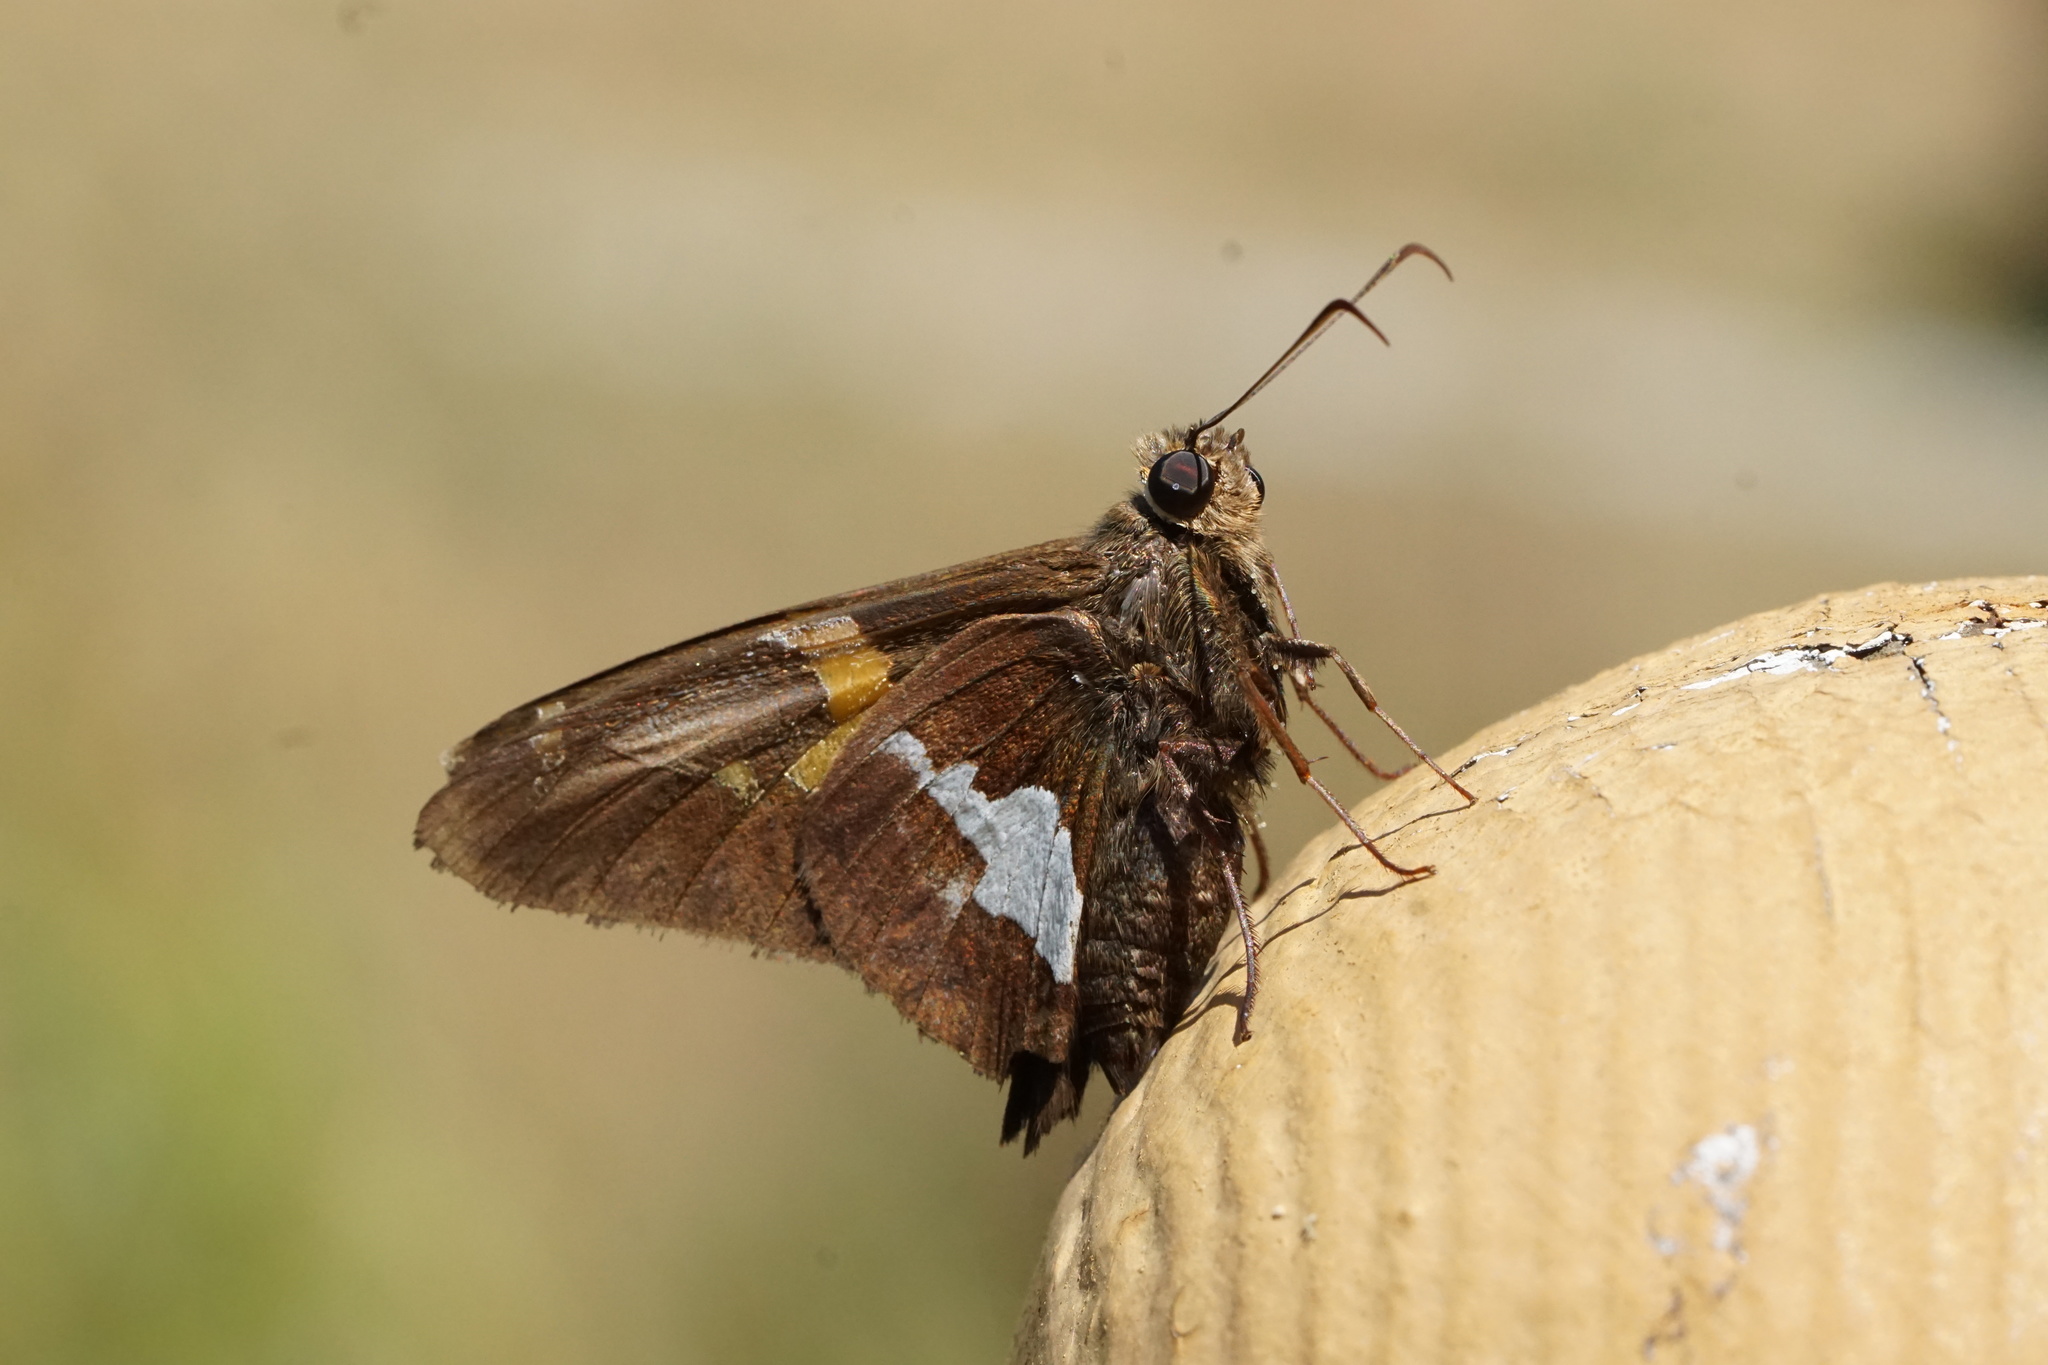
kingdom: Animalia
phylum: Arthropoda
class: Insecta
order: Lepidoptera
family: Hesperiidae
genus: Epargyreus
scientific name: Epargyreus clarus
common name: Silver-spotted skipper
